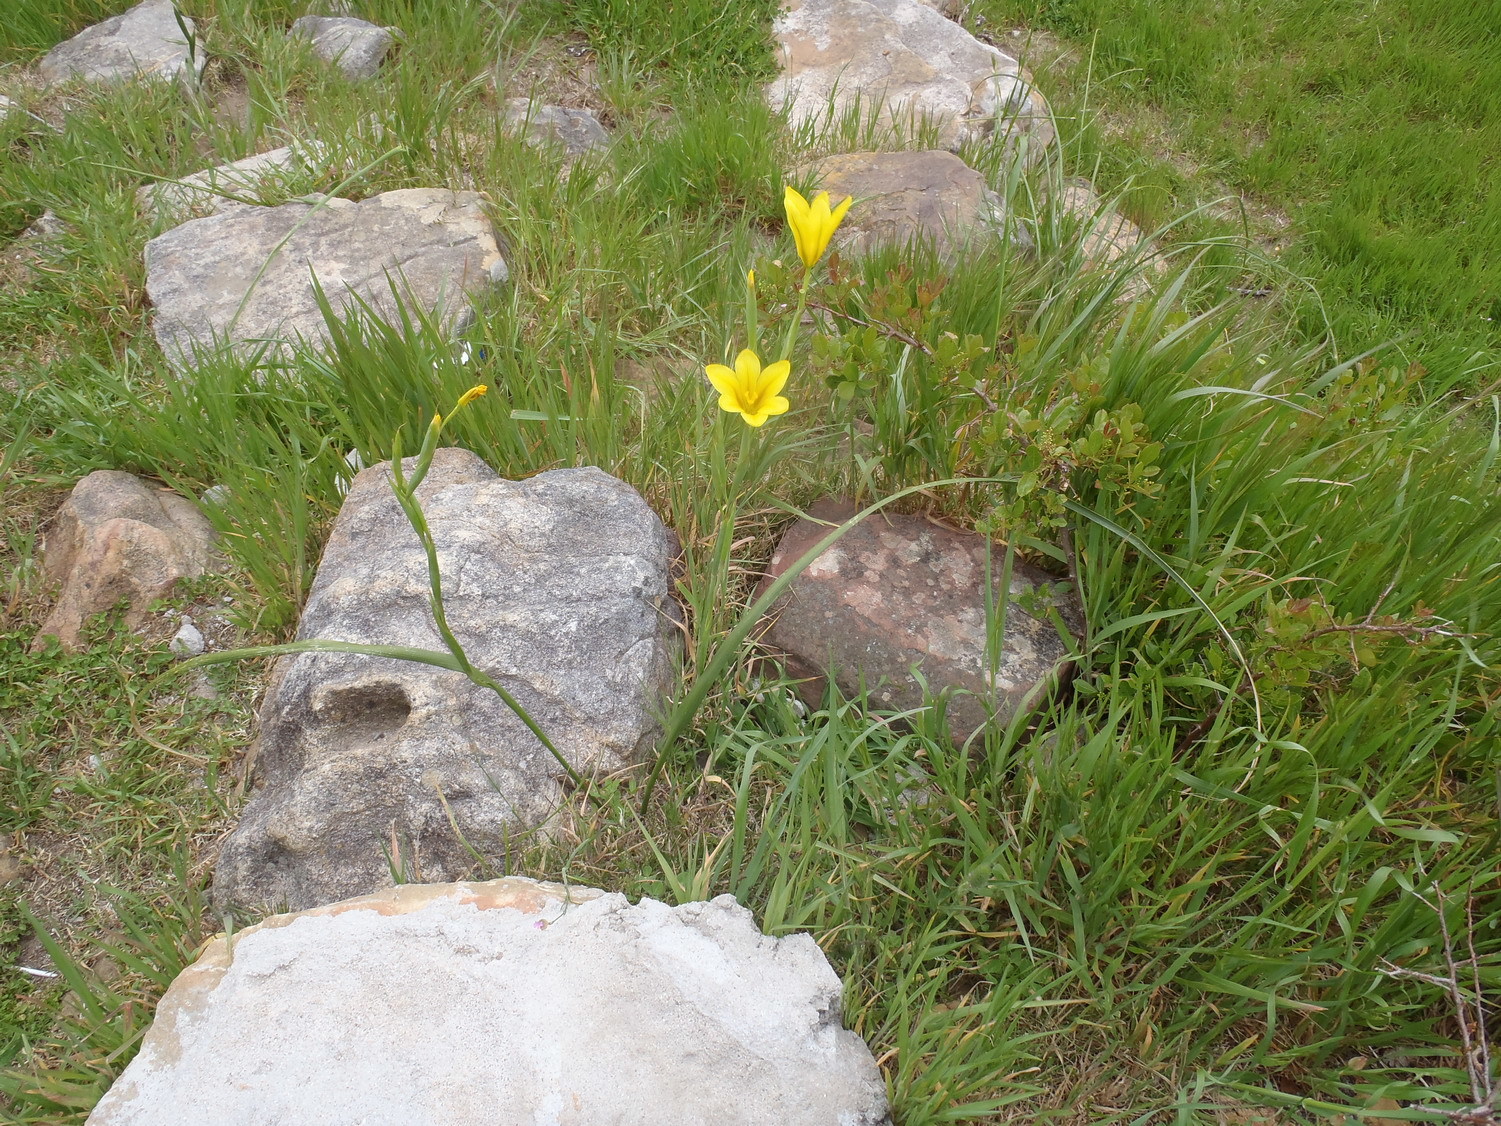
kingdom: Plantae
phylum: Tracheophyta
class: Liliopsida
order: Asparagales
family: Iridaceae
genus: Moraea
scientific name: Moraea ochroleuca
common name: Red tulp
